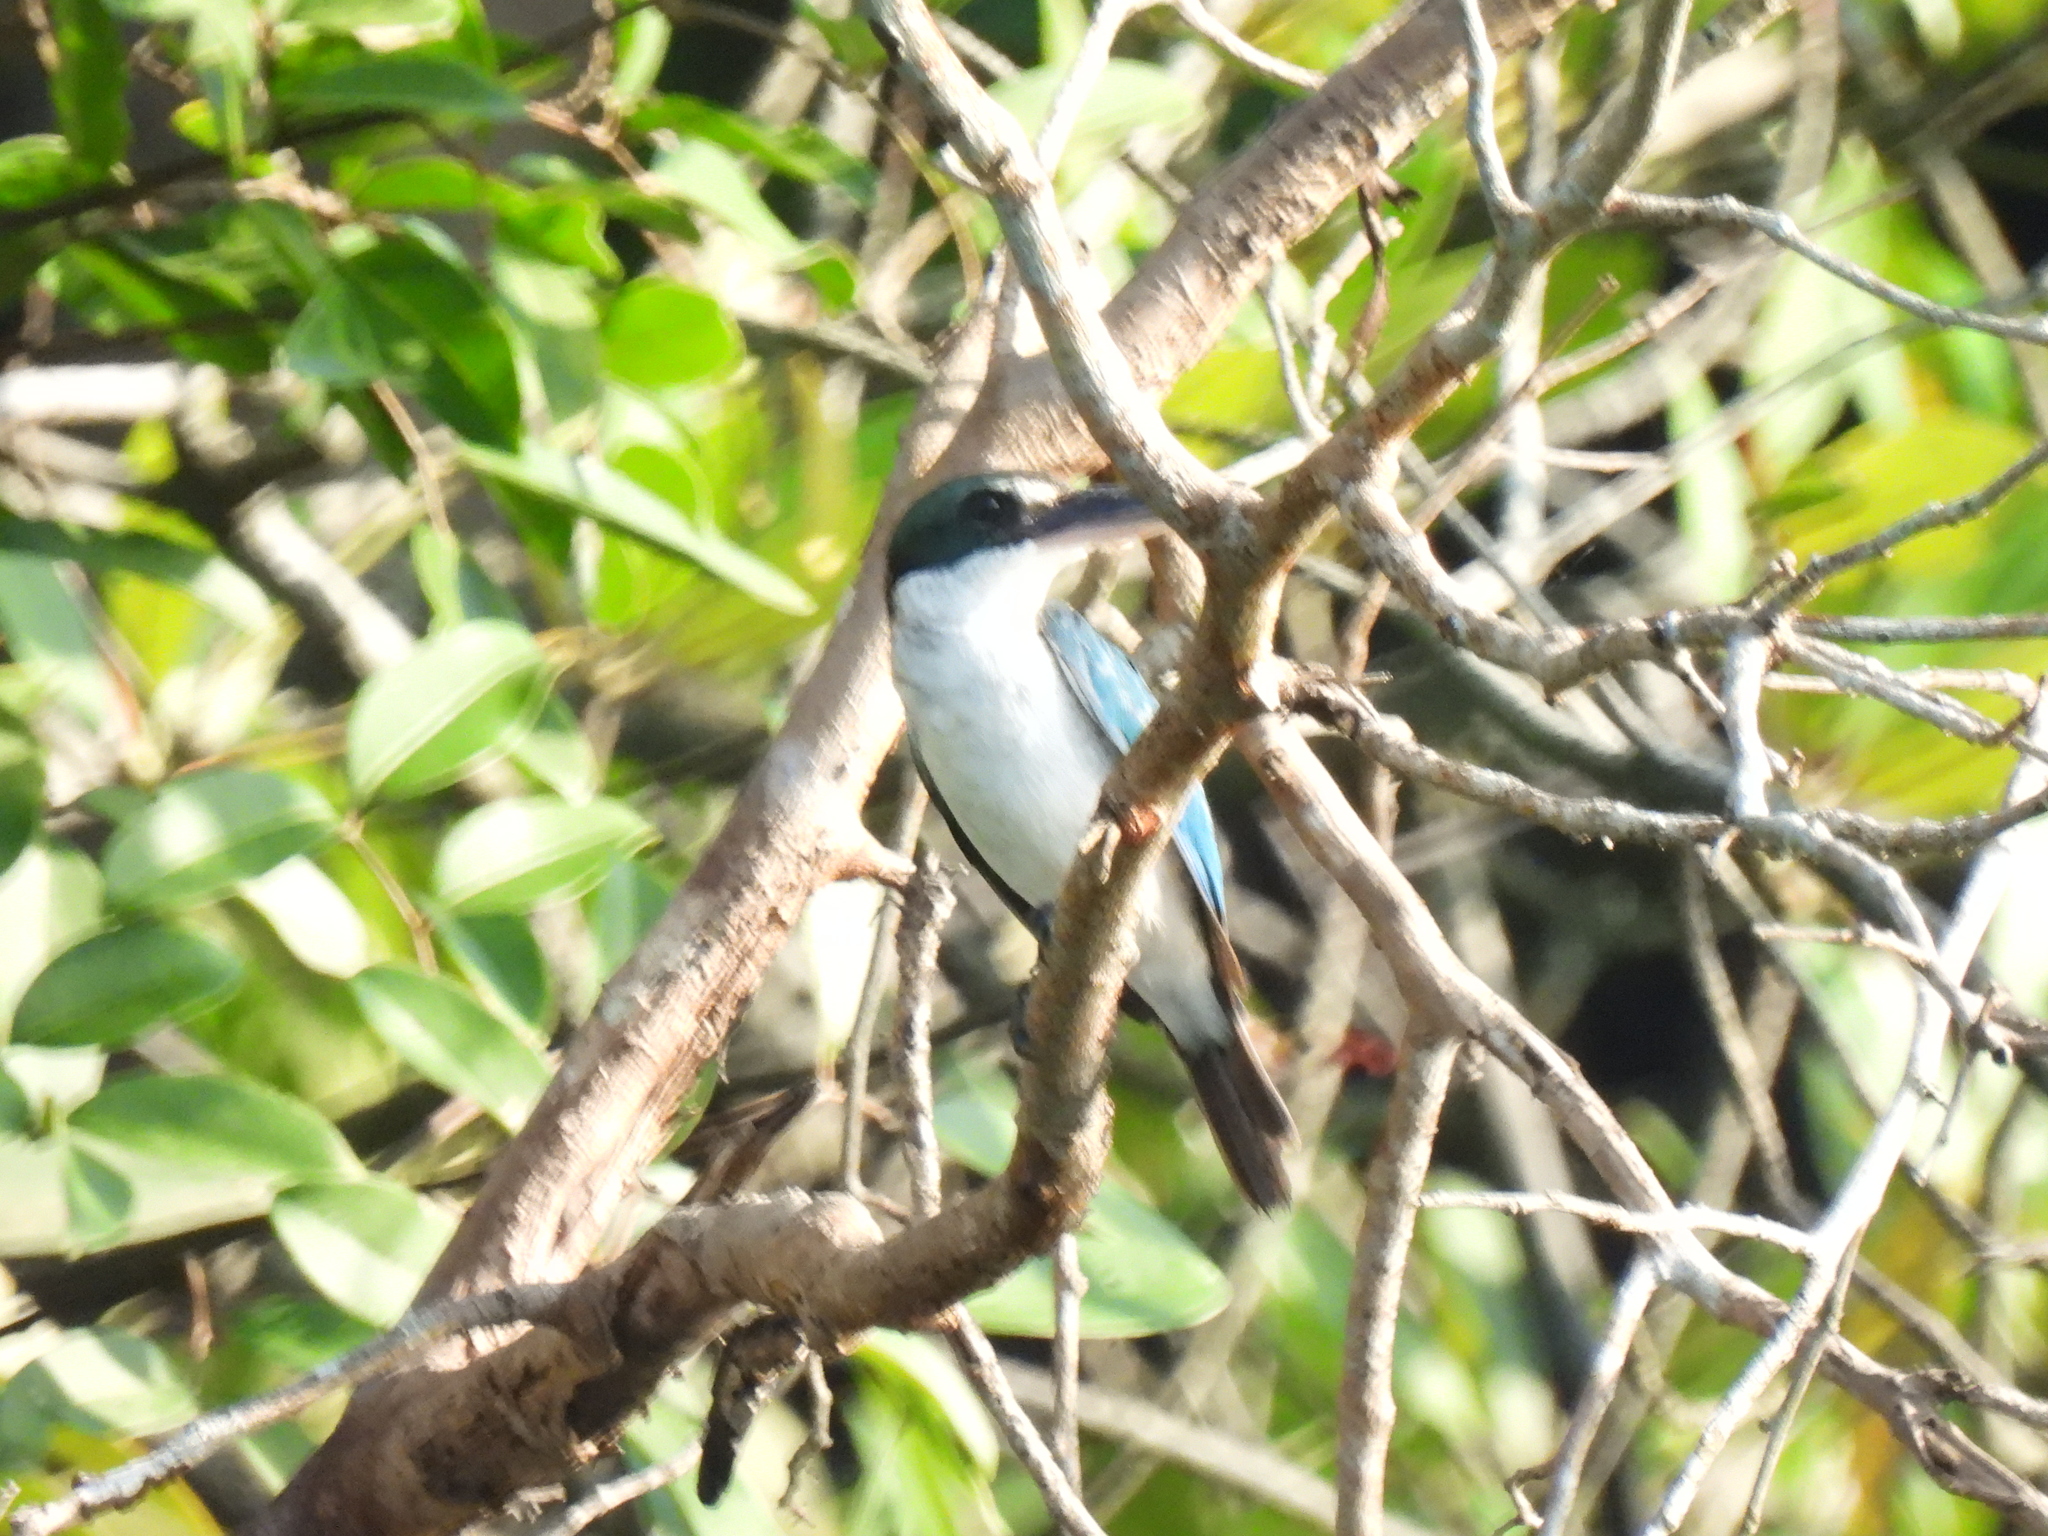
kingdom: Animalia
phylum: Chordata
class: Aves
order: Coraciiformes
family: Alcedinidae
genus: Todiramphus
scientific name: Todiramphus chloris
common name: Collared kingfisher
